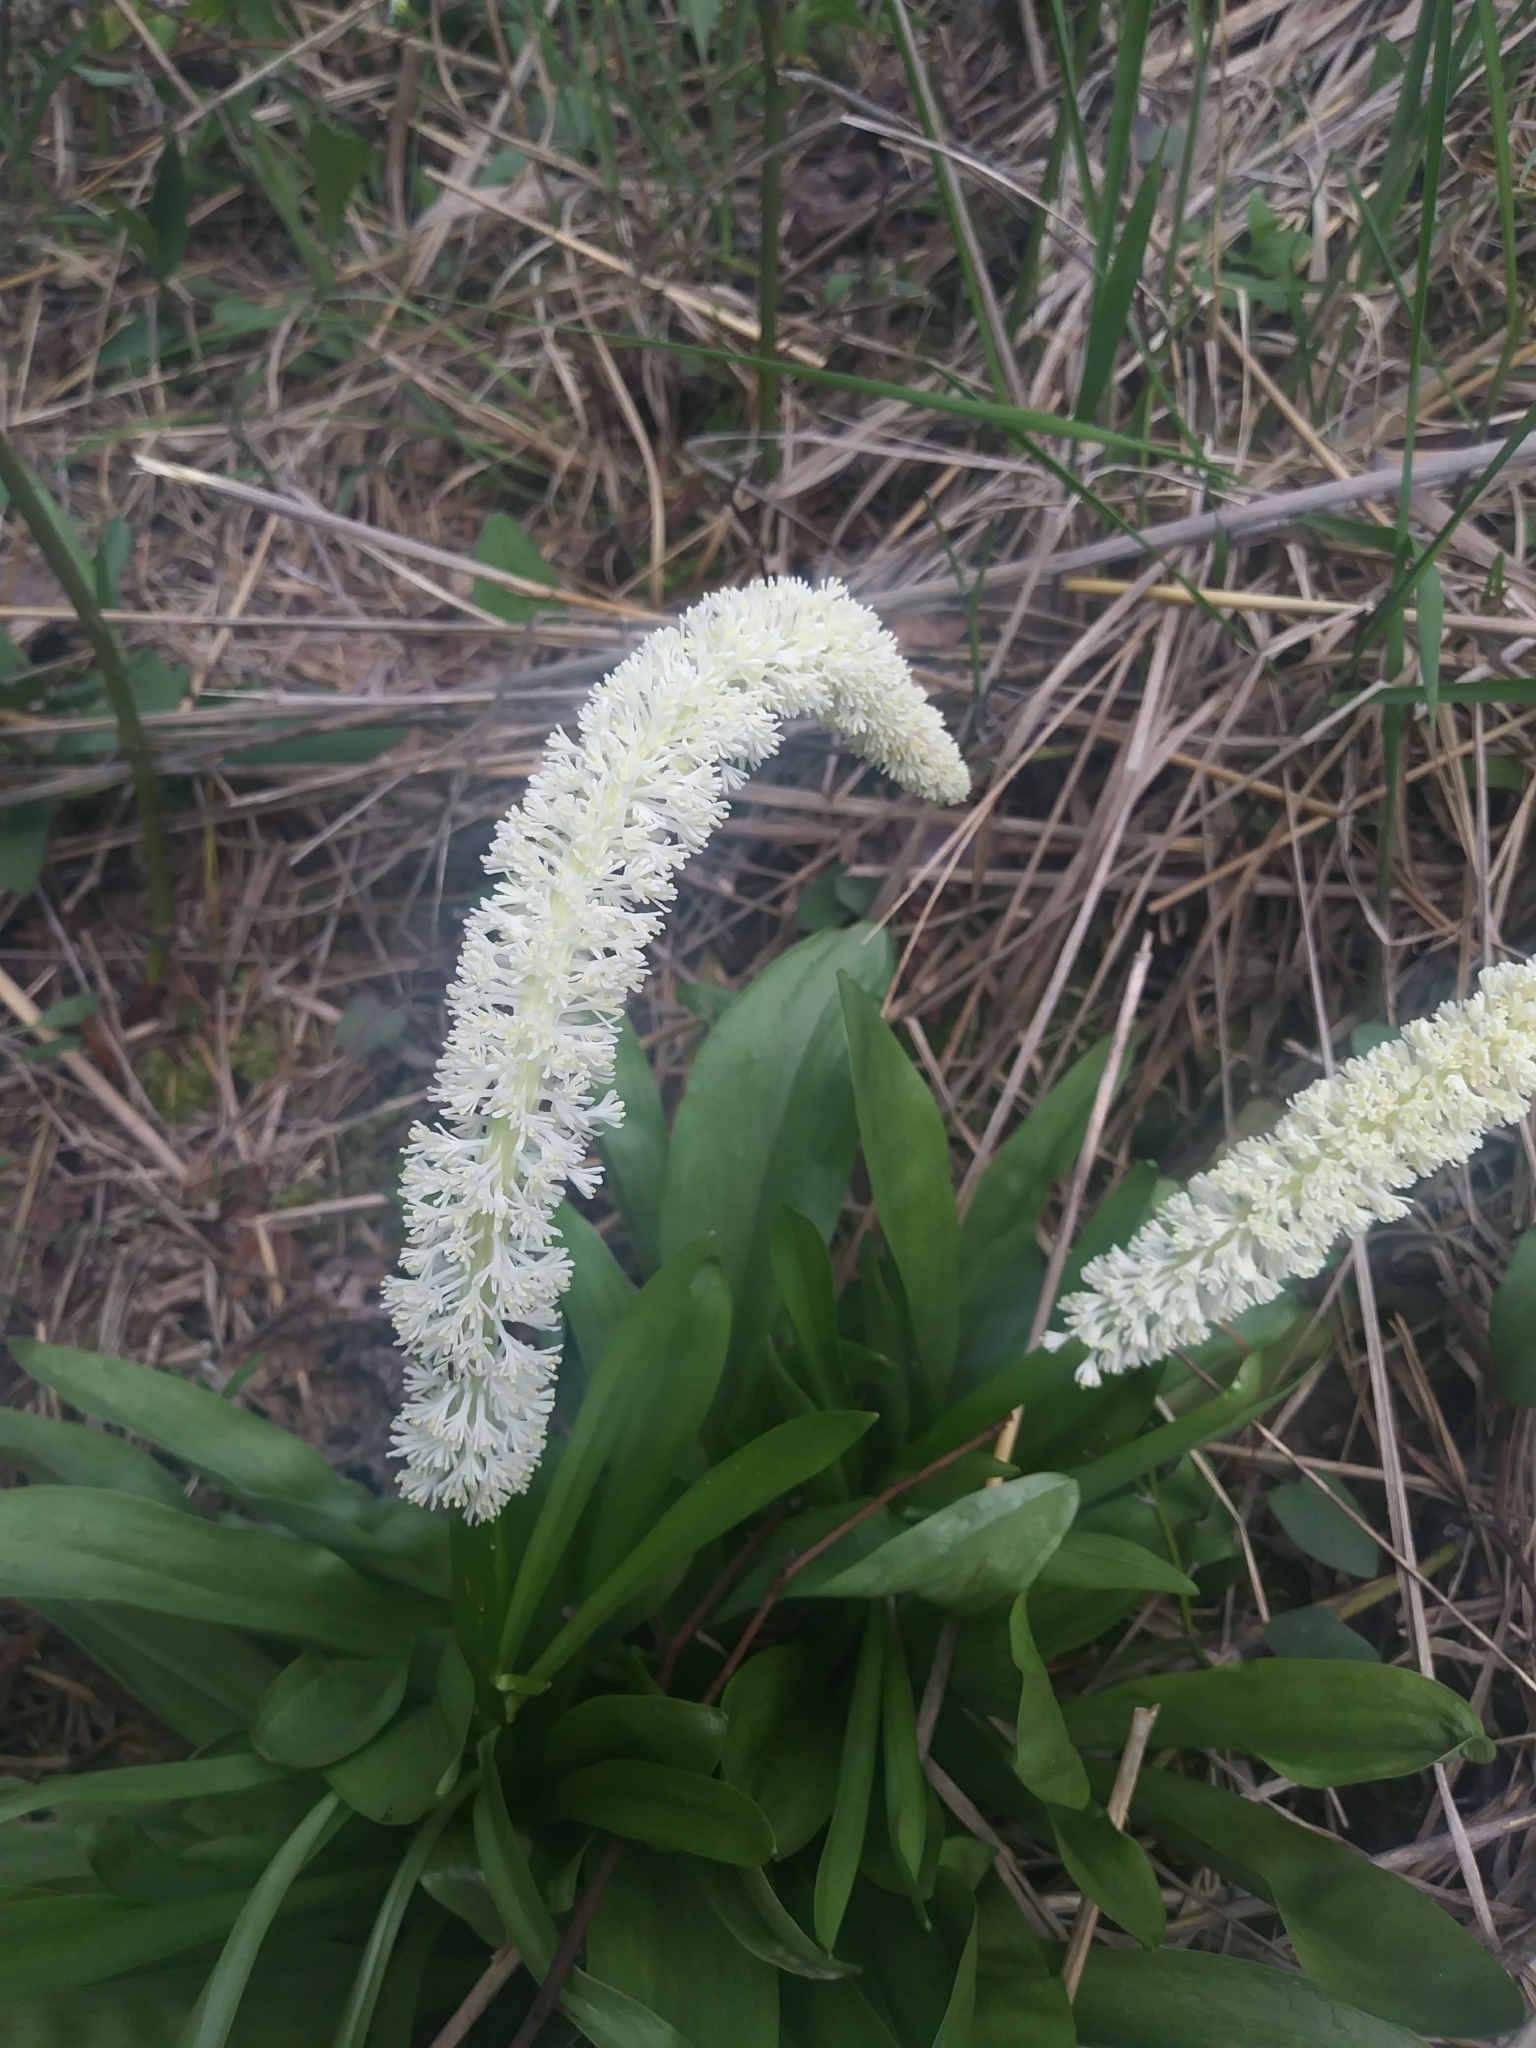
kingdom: Plantae
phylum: Tracheophyta
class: Liliopsida
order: Liliales
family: Melanthiaceae
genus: Chamaelirium
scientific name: Chamaelirium luteum
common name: Fairy-wand
